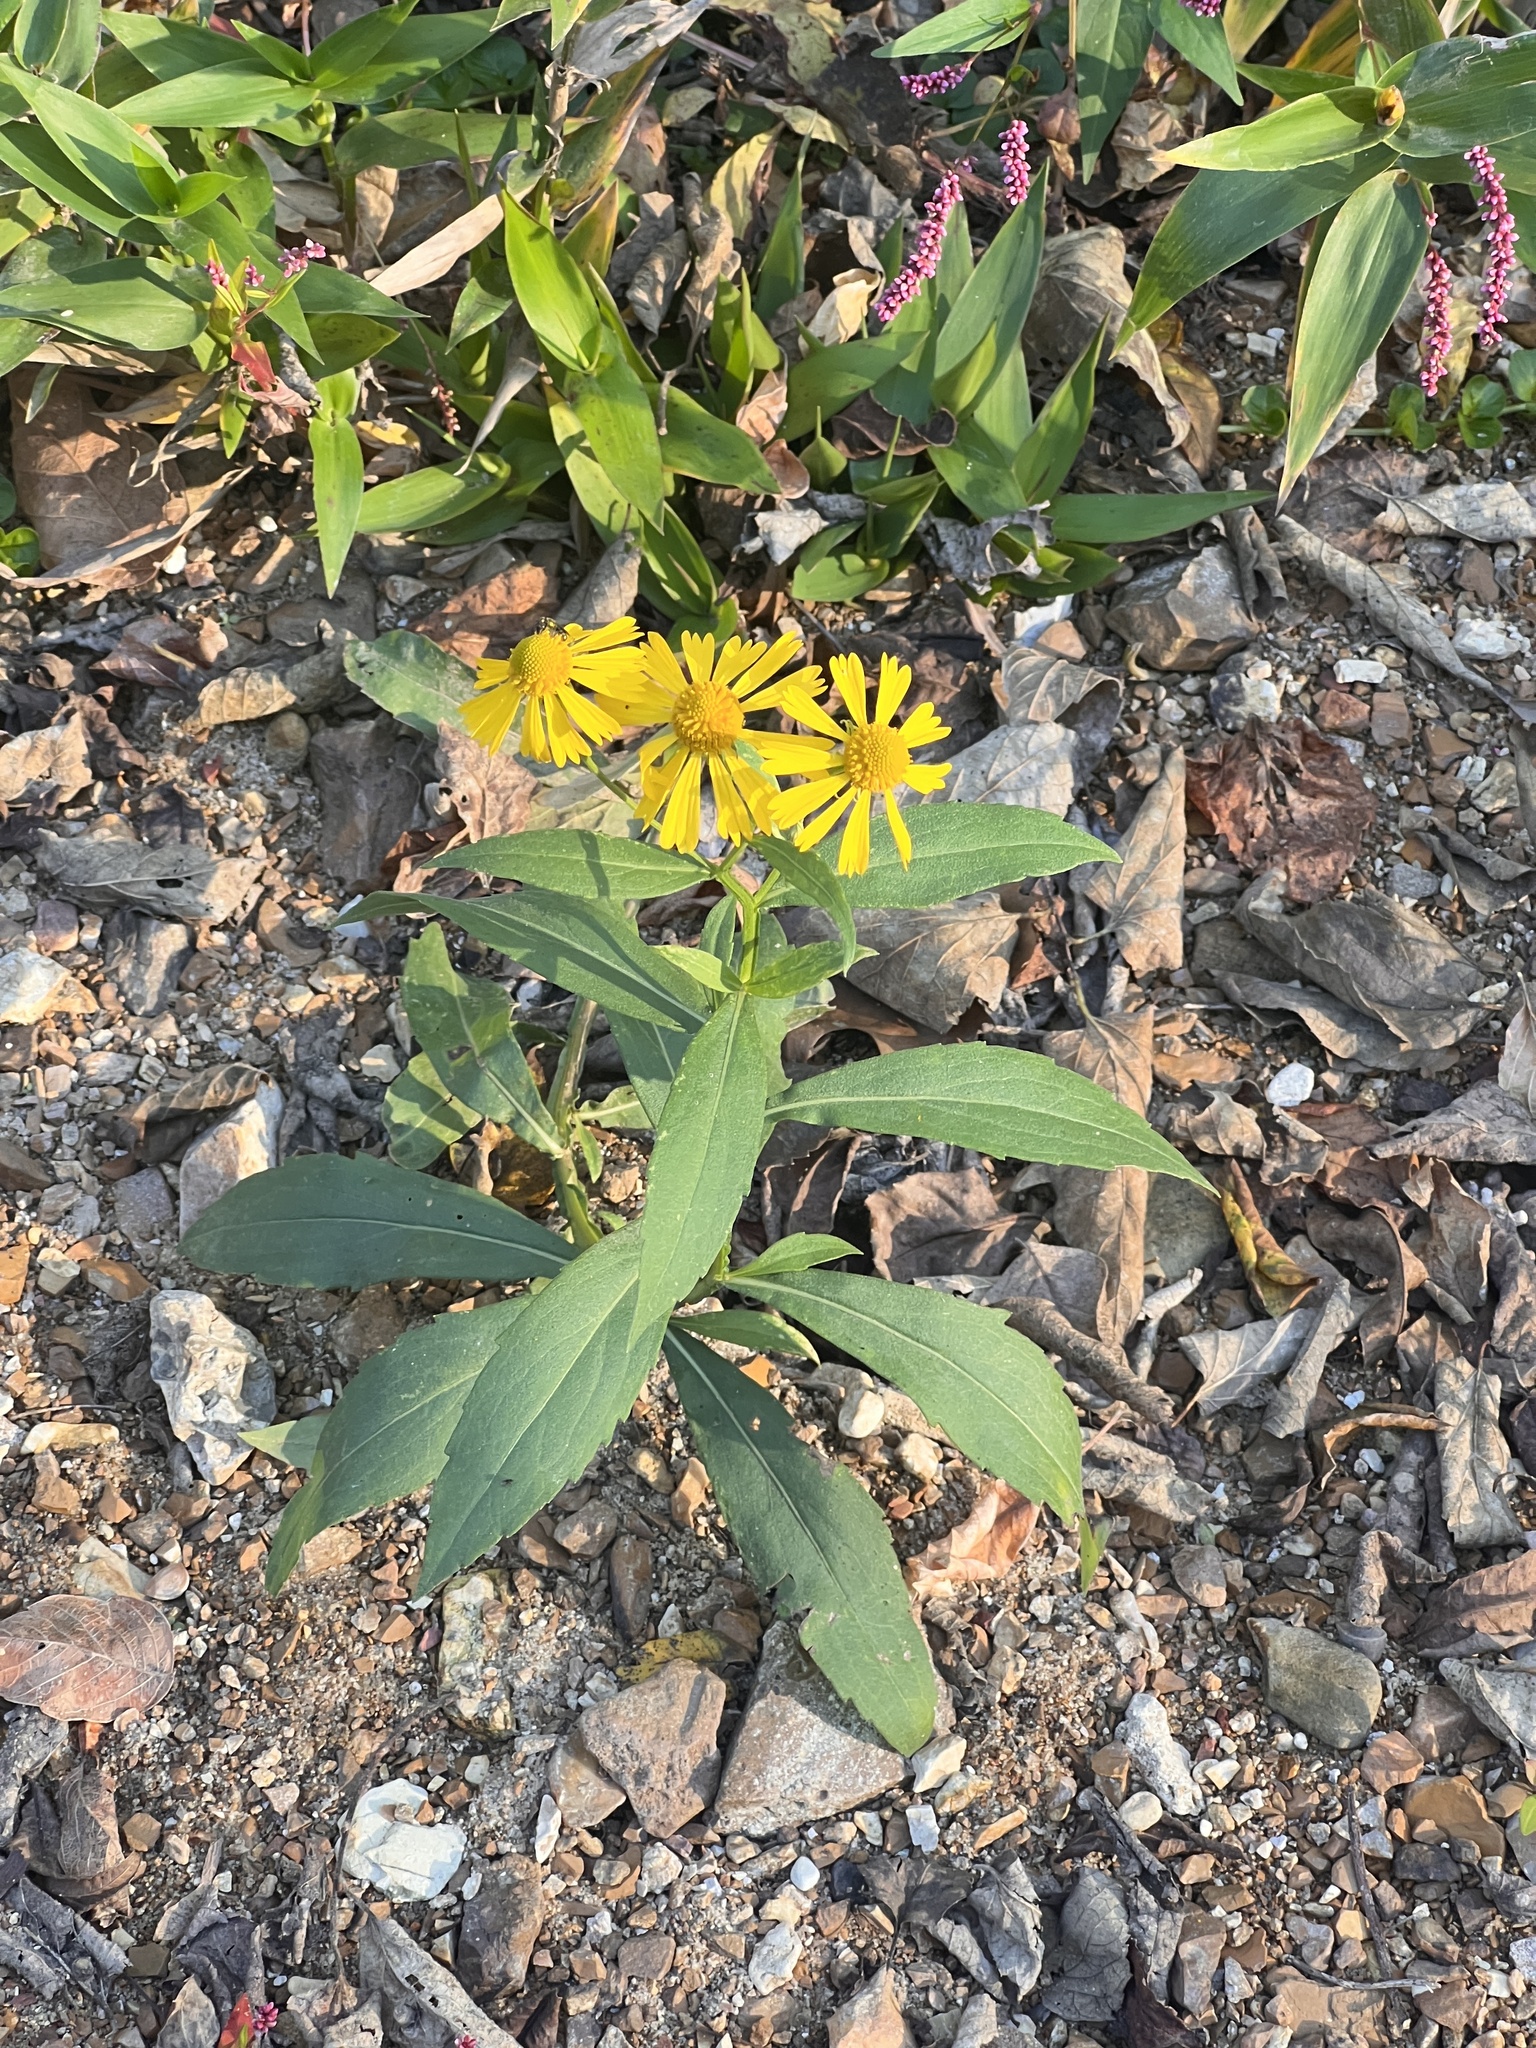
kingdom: Plantae
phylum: Tracheophyta
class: Magnoliopsida
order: Asterales
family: Asteraceae
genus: Helenium
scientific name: Helenium autumnale
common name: Sneezeweed
